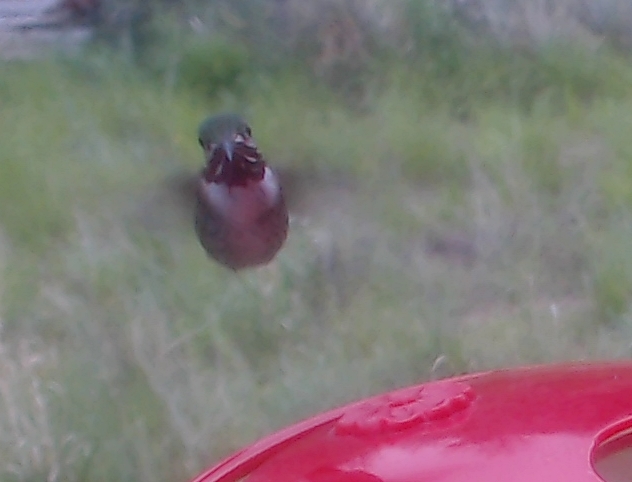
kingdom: Animalia
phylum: Chordata
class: Aves
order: Apodiformes
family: Trochilidae
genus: Selasphorus
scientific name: Selasphorus calliope
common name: Calliope hummingbird
